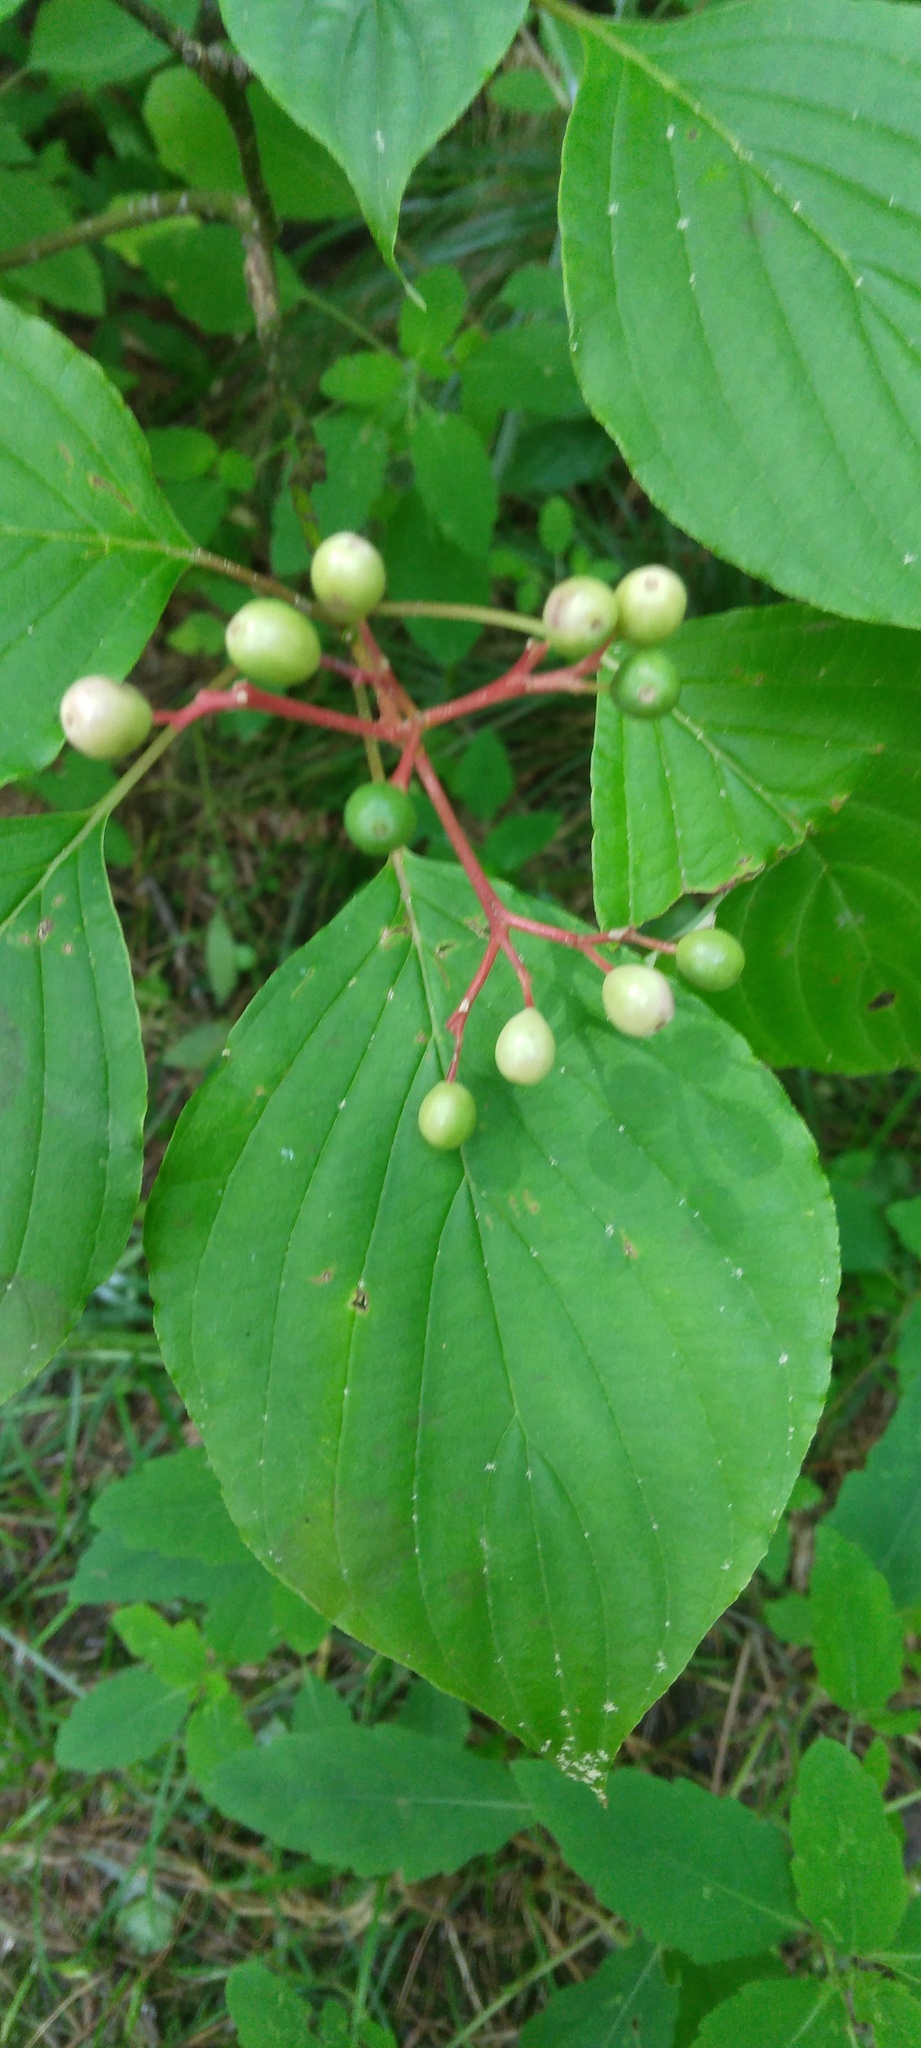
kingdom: Plantae
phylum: Tracheophyta
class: Magnoliopsida
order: Cornales
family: Cornaceae
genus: Cornus
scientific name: Cornus alternifolia
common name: Pagoda dogwood
